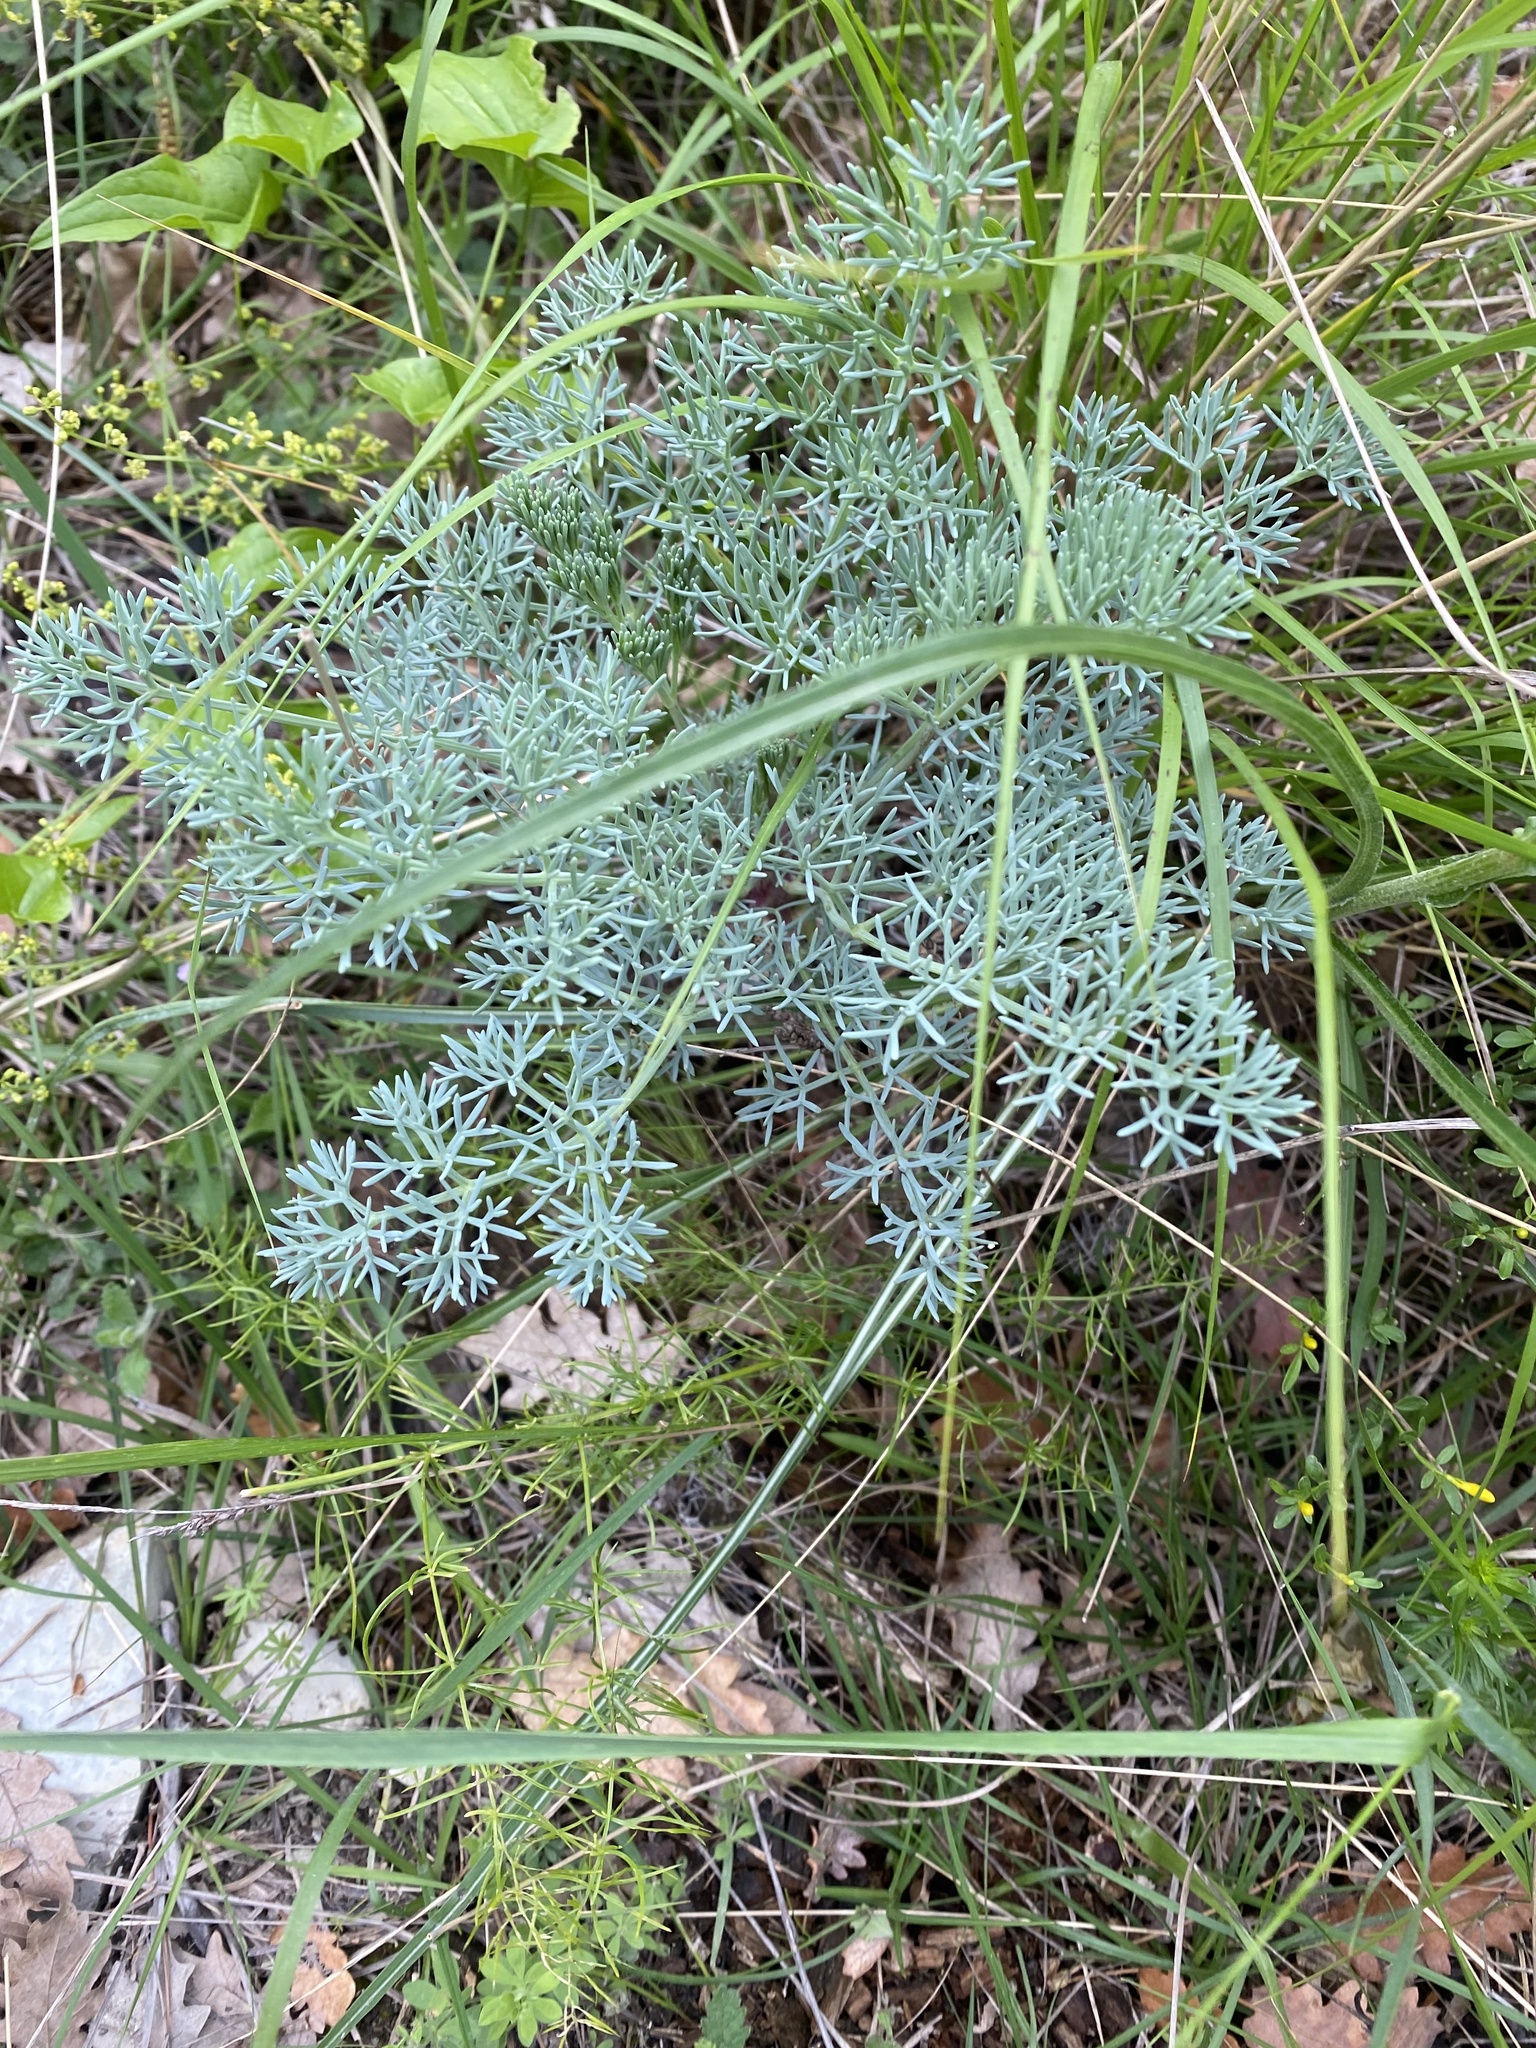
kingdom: Plantae
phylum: Tracheophyta
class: Magnoliopsida
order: Apiales
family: Apiaceae
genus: Seseli
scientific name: Seseli ponticum
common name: Pontic seseli
